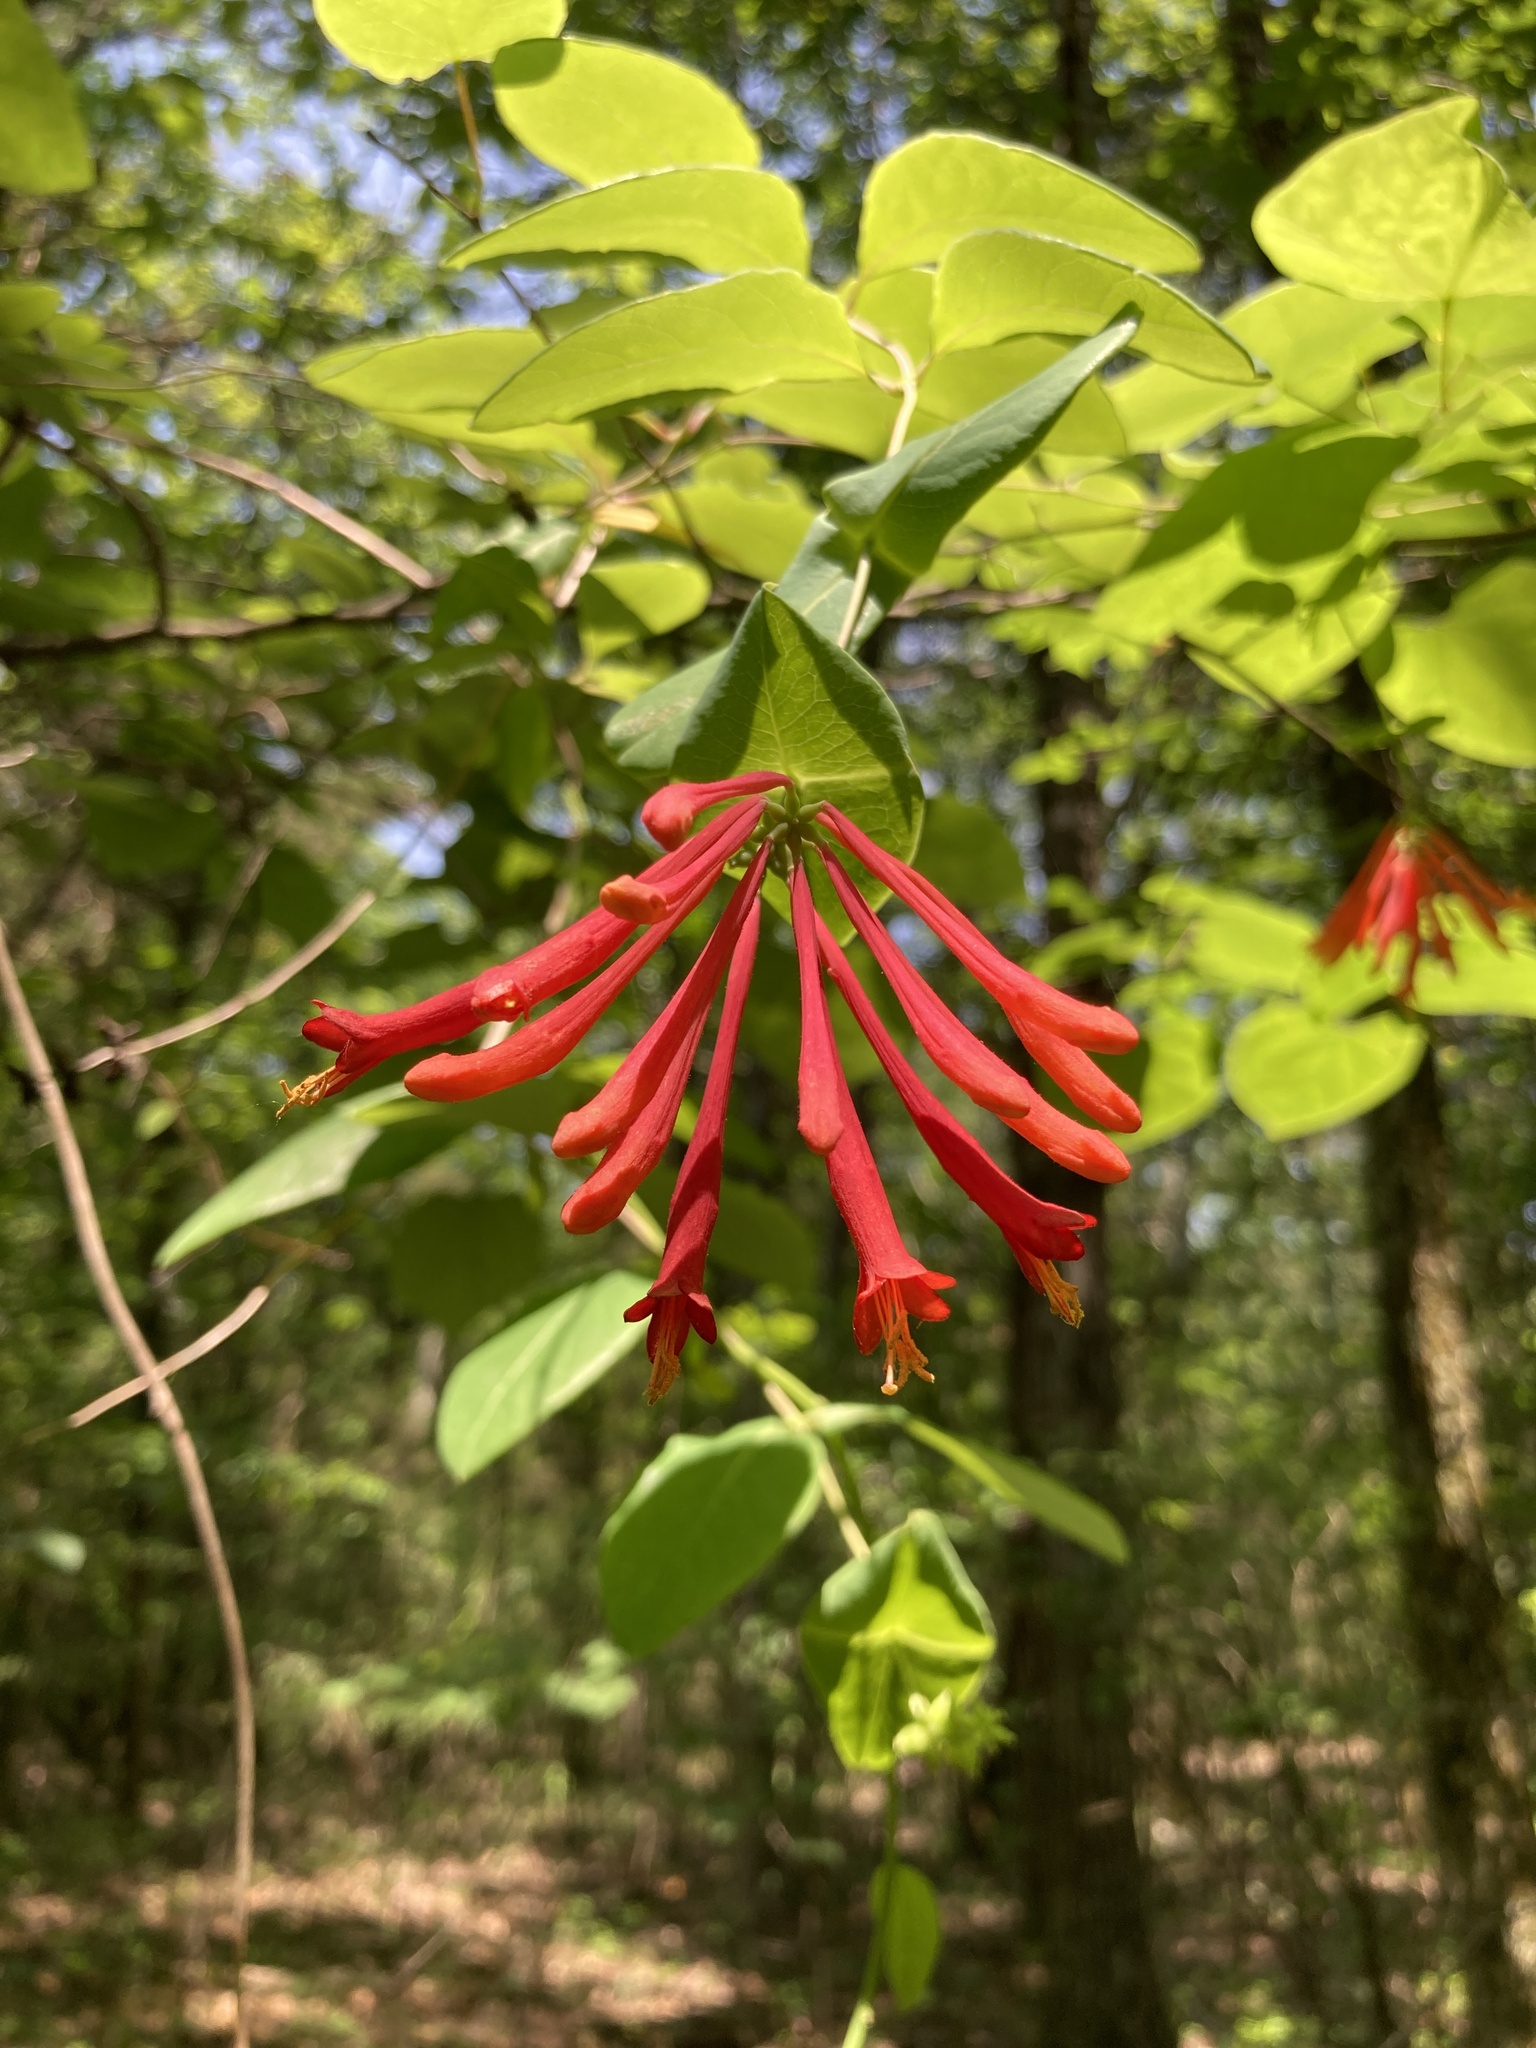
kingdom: Plantae
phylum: Tracheophyta
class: Magnoliopsida
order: Dipsacales
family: Caprifoliaceae
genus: Lonicera
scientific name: Lonicera sempervirens
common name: Coral honeysuckle
